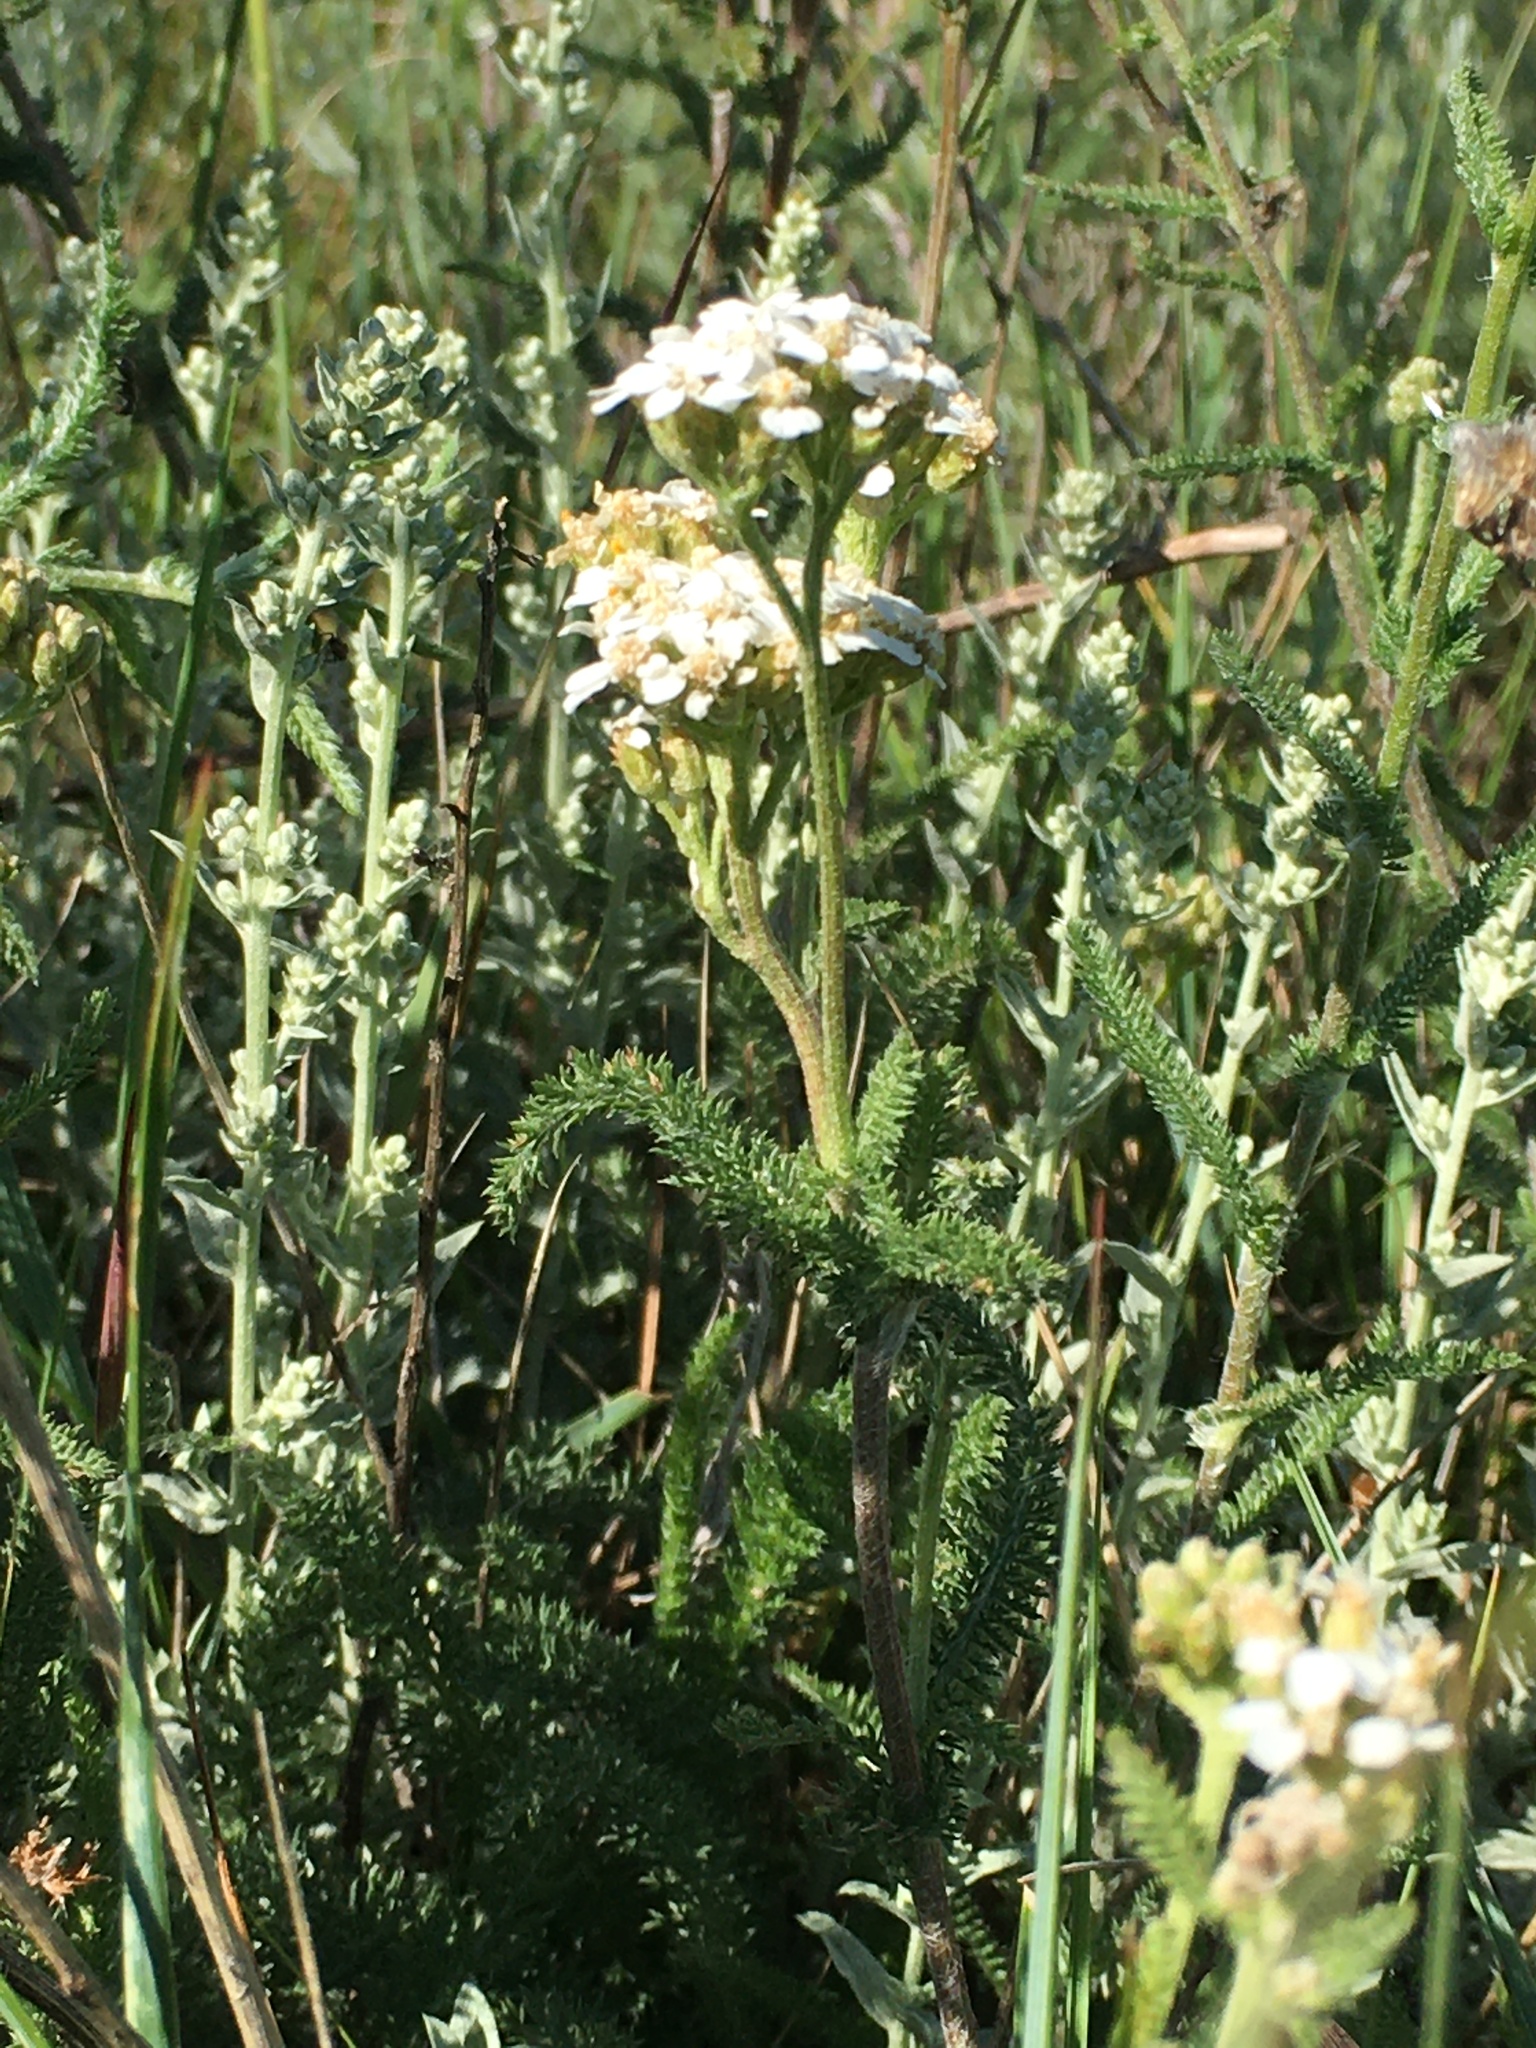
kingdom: Plantae
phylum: Tracheophyta
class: Magnoliopsida
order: Asterales
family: Asteraceae
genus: Achillea
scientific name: Achillea millefolium
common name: Yarrow
